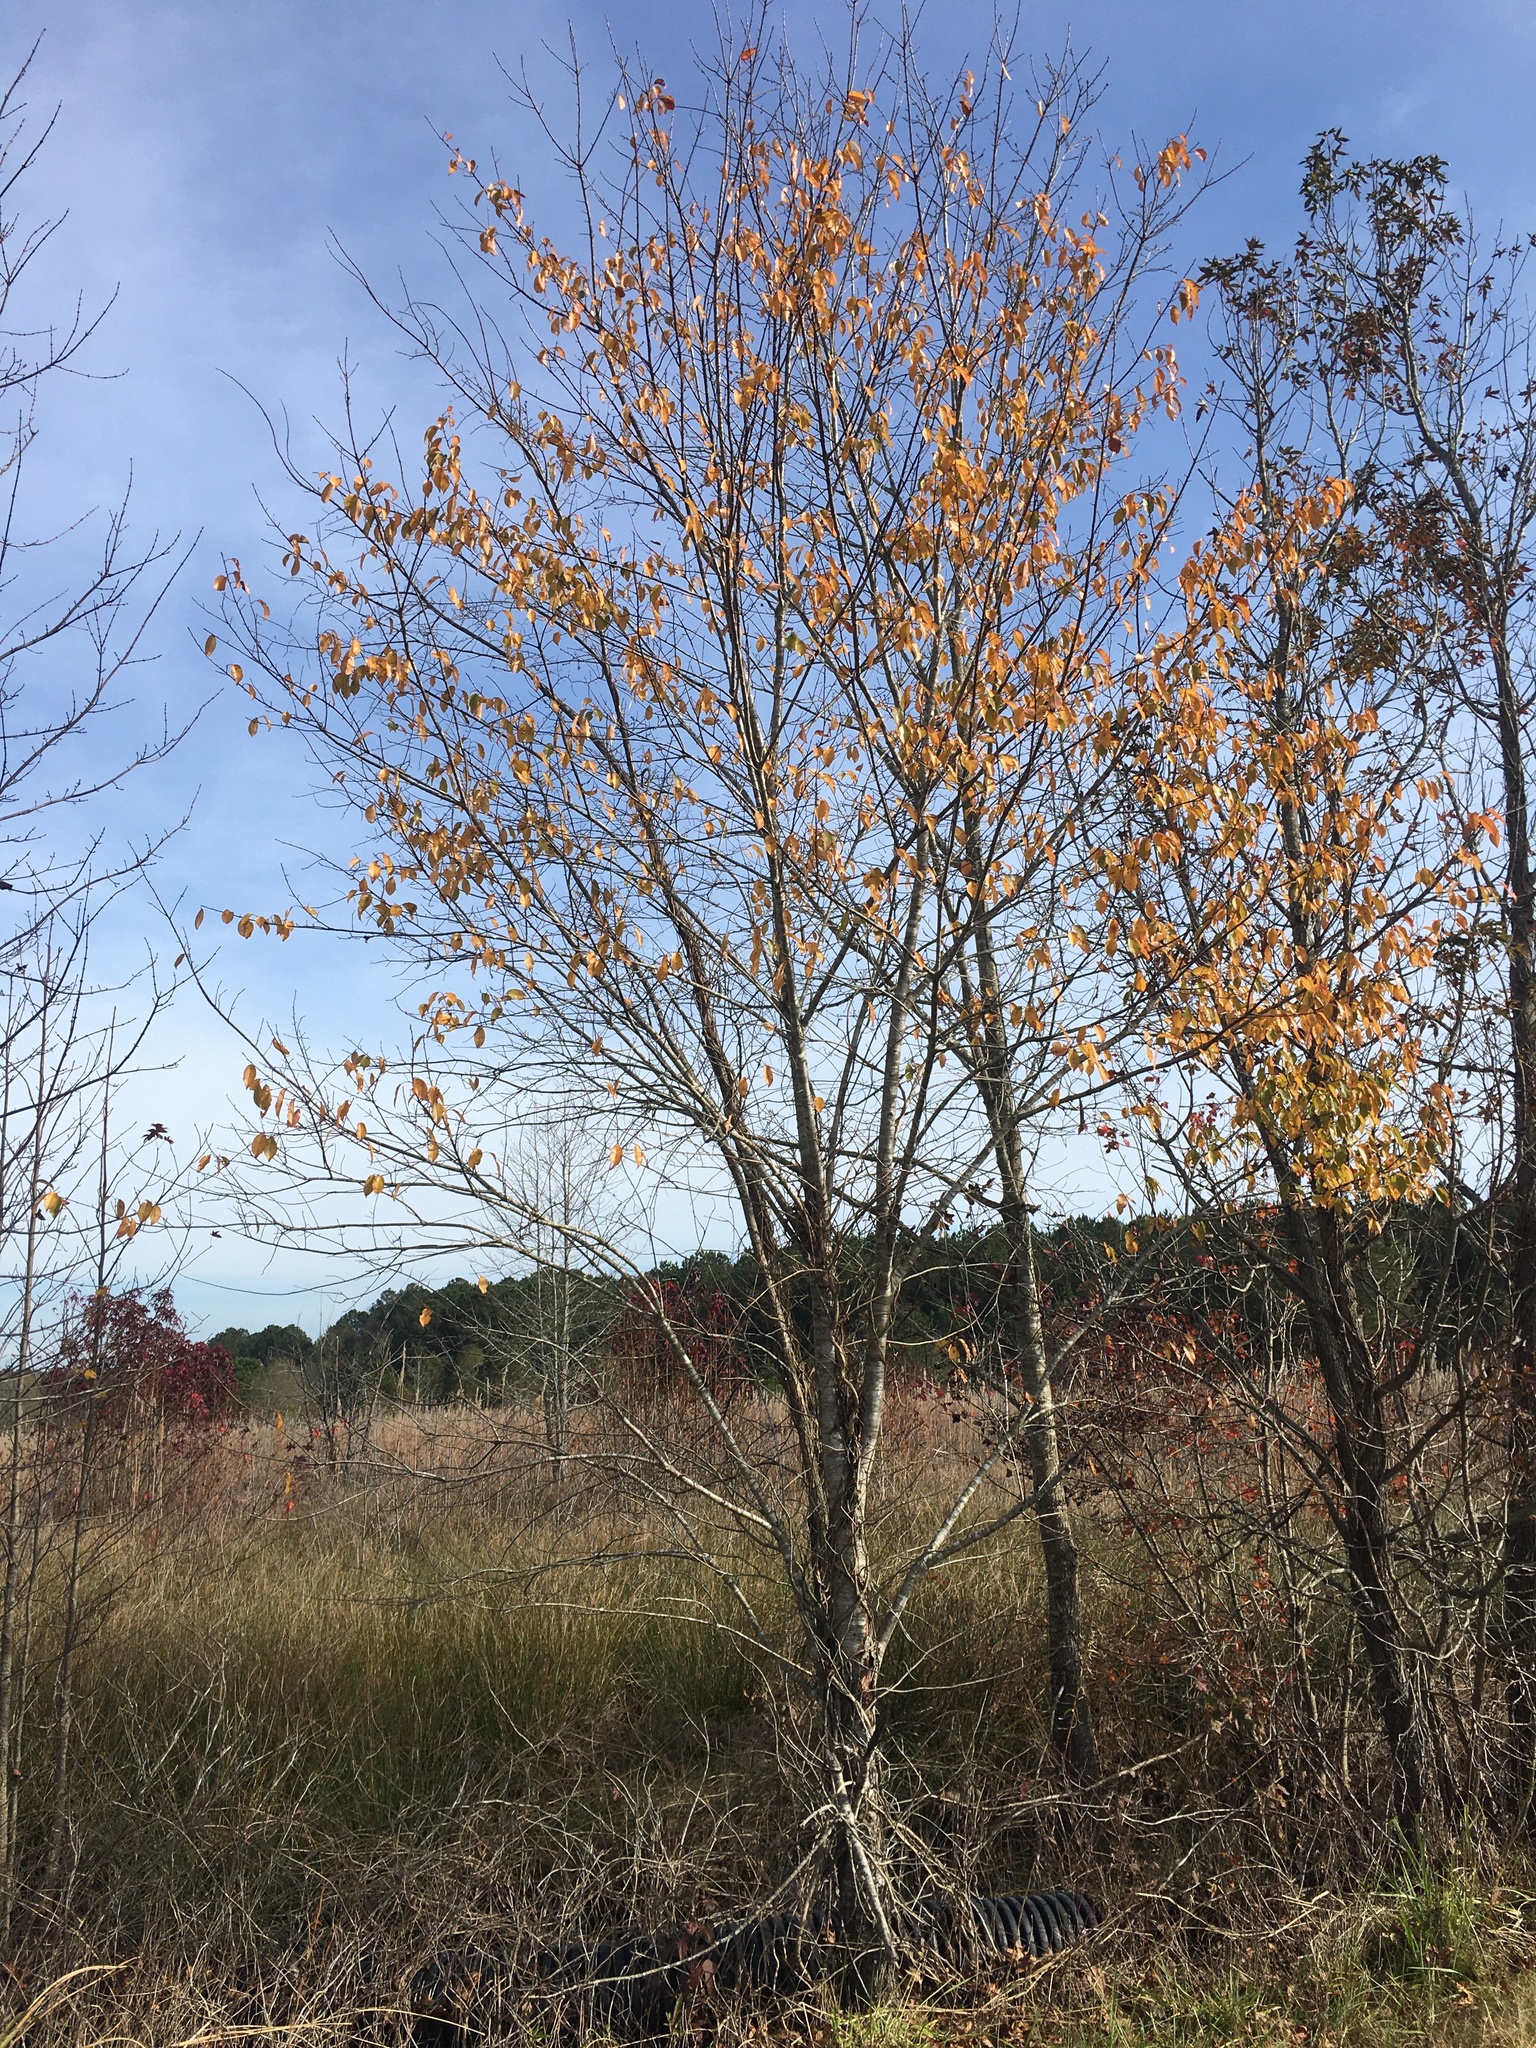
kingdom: Plantae
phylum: Tracheophyta
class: Magnoliopsida
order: Rosales
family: Rosaceae
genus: Prunus
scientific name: Prunus serotina
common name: Black cherry
